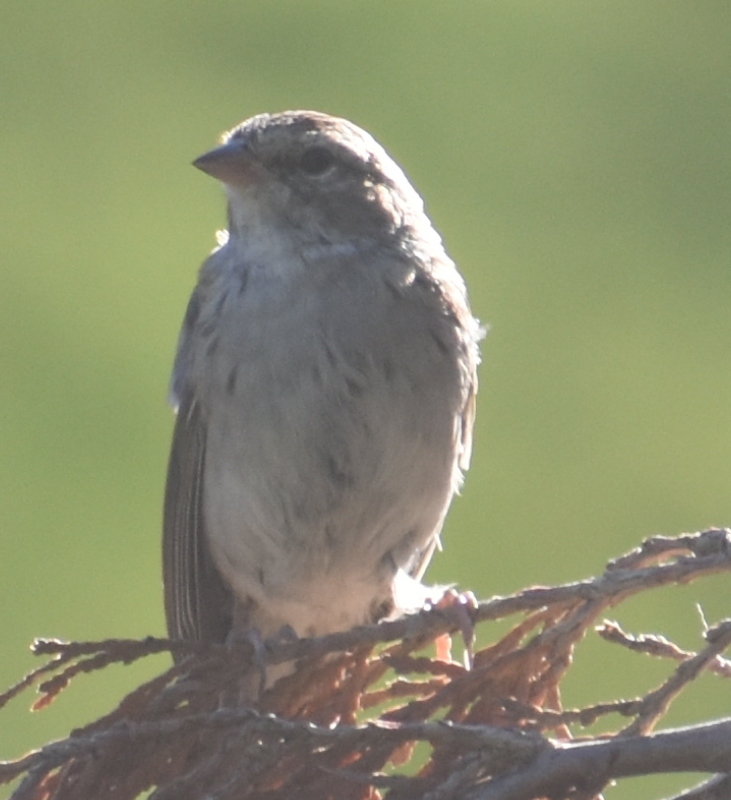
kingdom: Animalia
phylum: Chordata
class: Aves
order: Passeriformes
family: Passerellidae
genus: Spizella
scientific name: Spizella passerina
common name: Chipping sparrow
